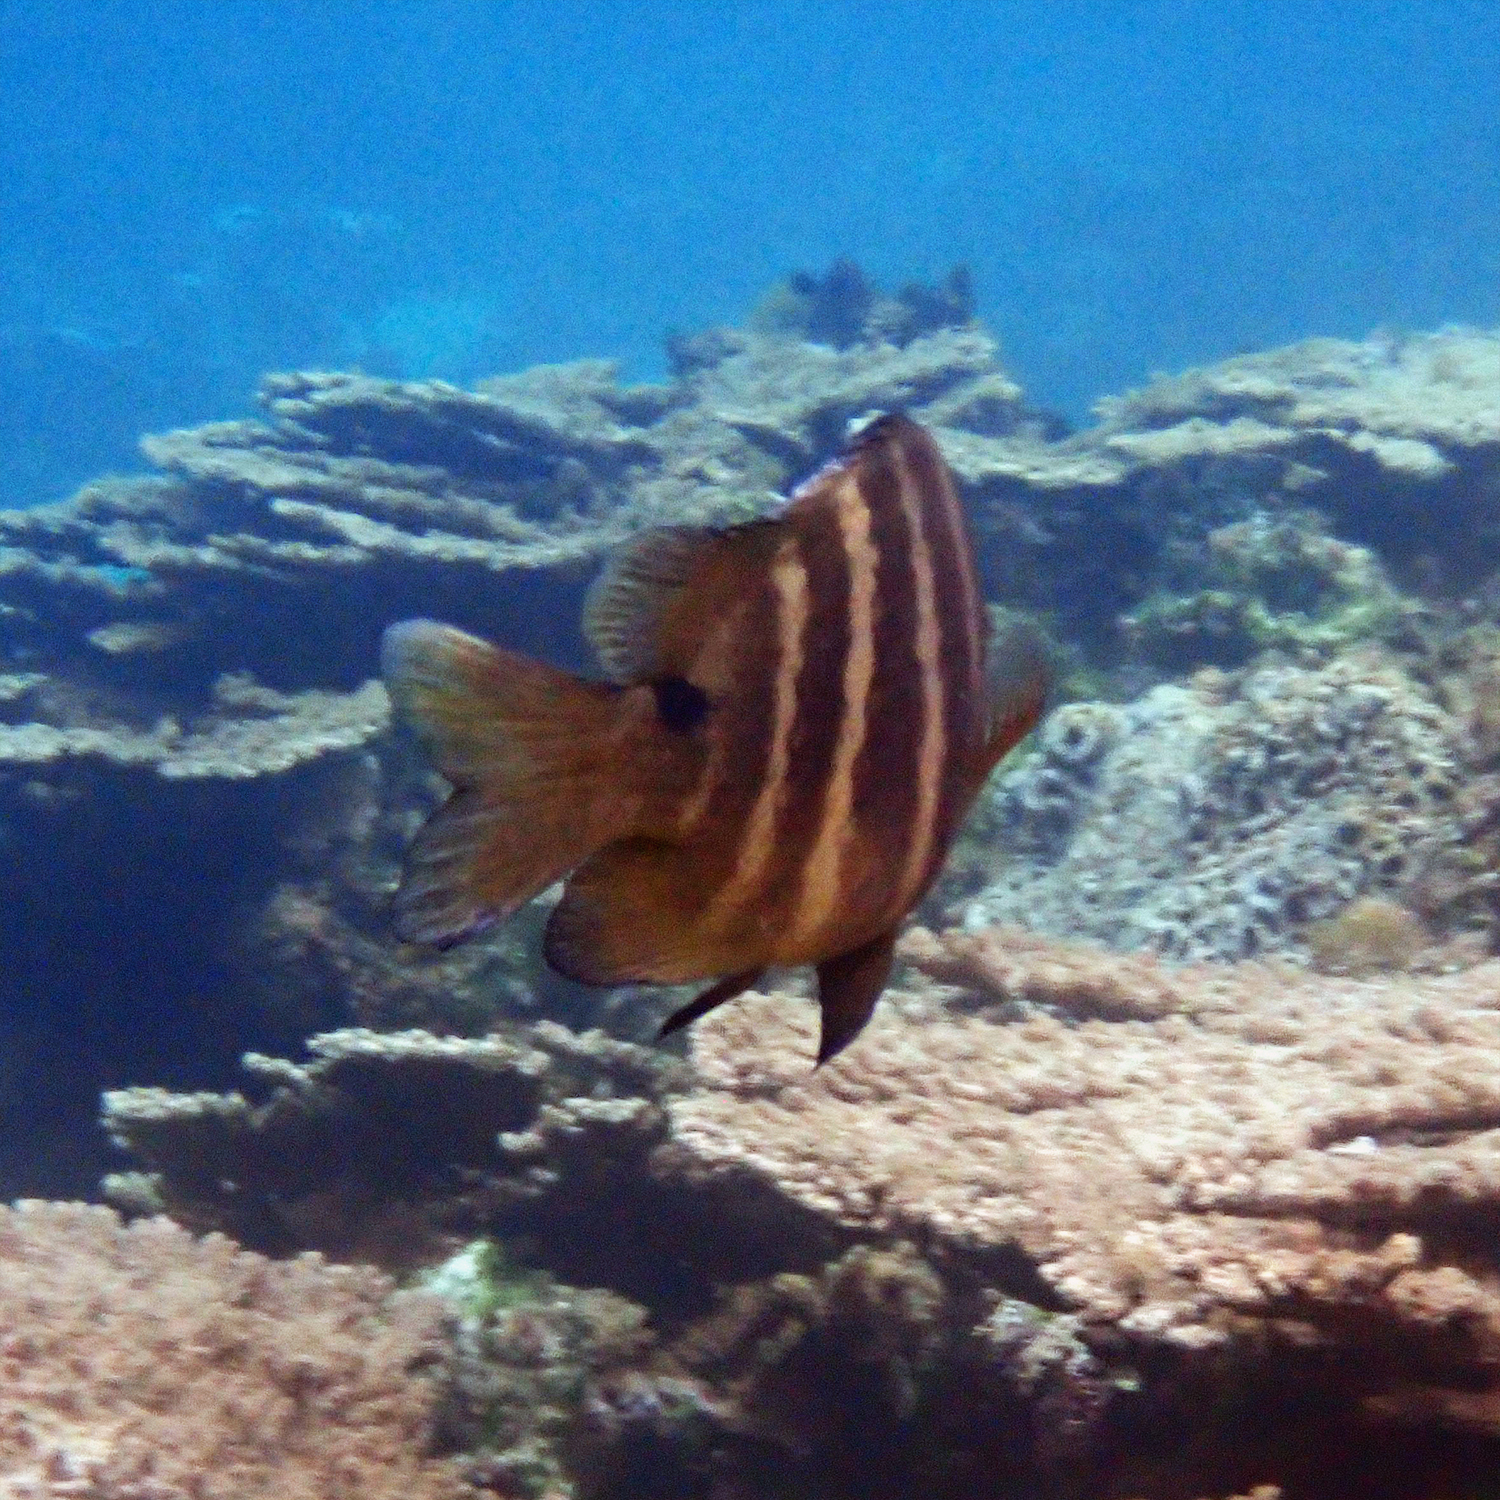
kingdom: Animalia
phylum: Chordata
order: Perciformes
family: Pomacentridae
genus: Abudefduf
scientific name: Abudefduf sordidus
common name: Blackspot sergeant
